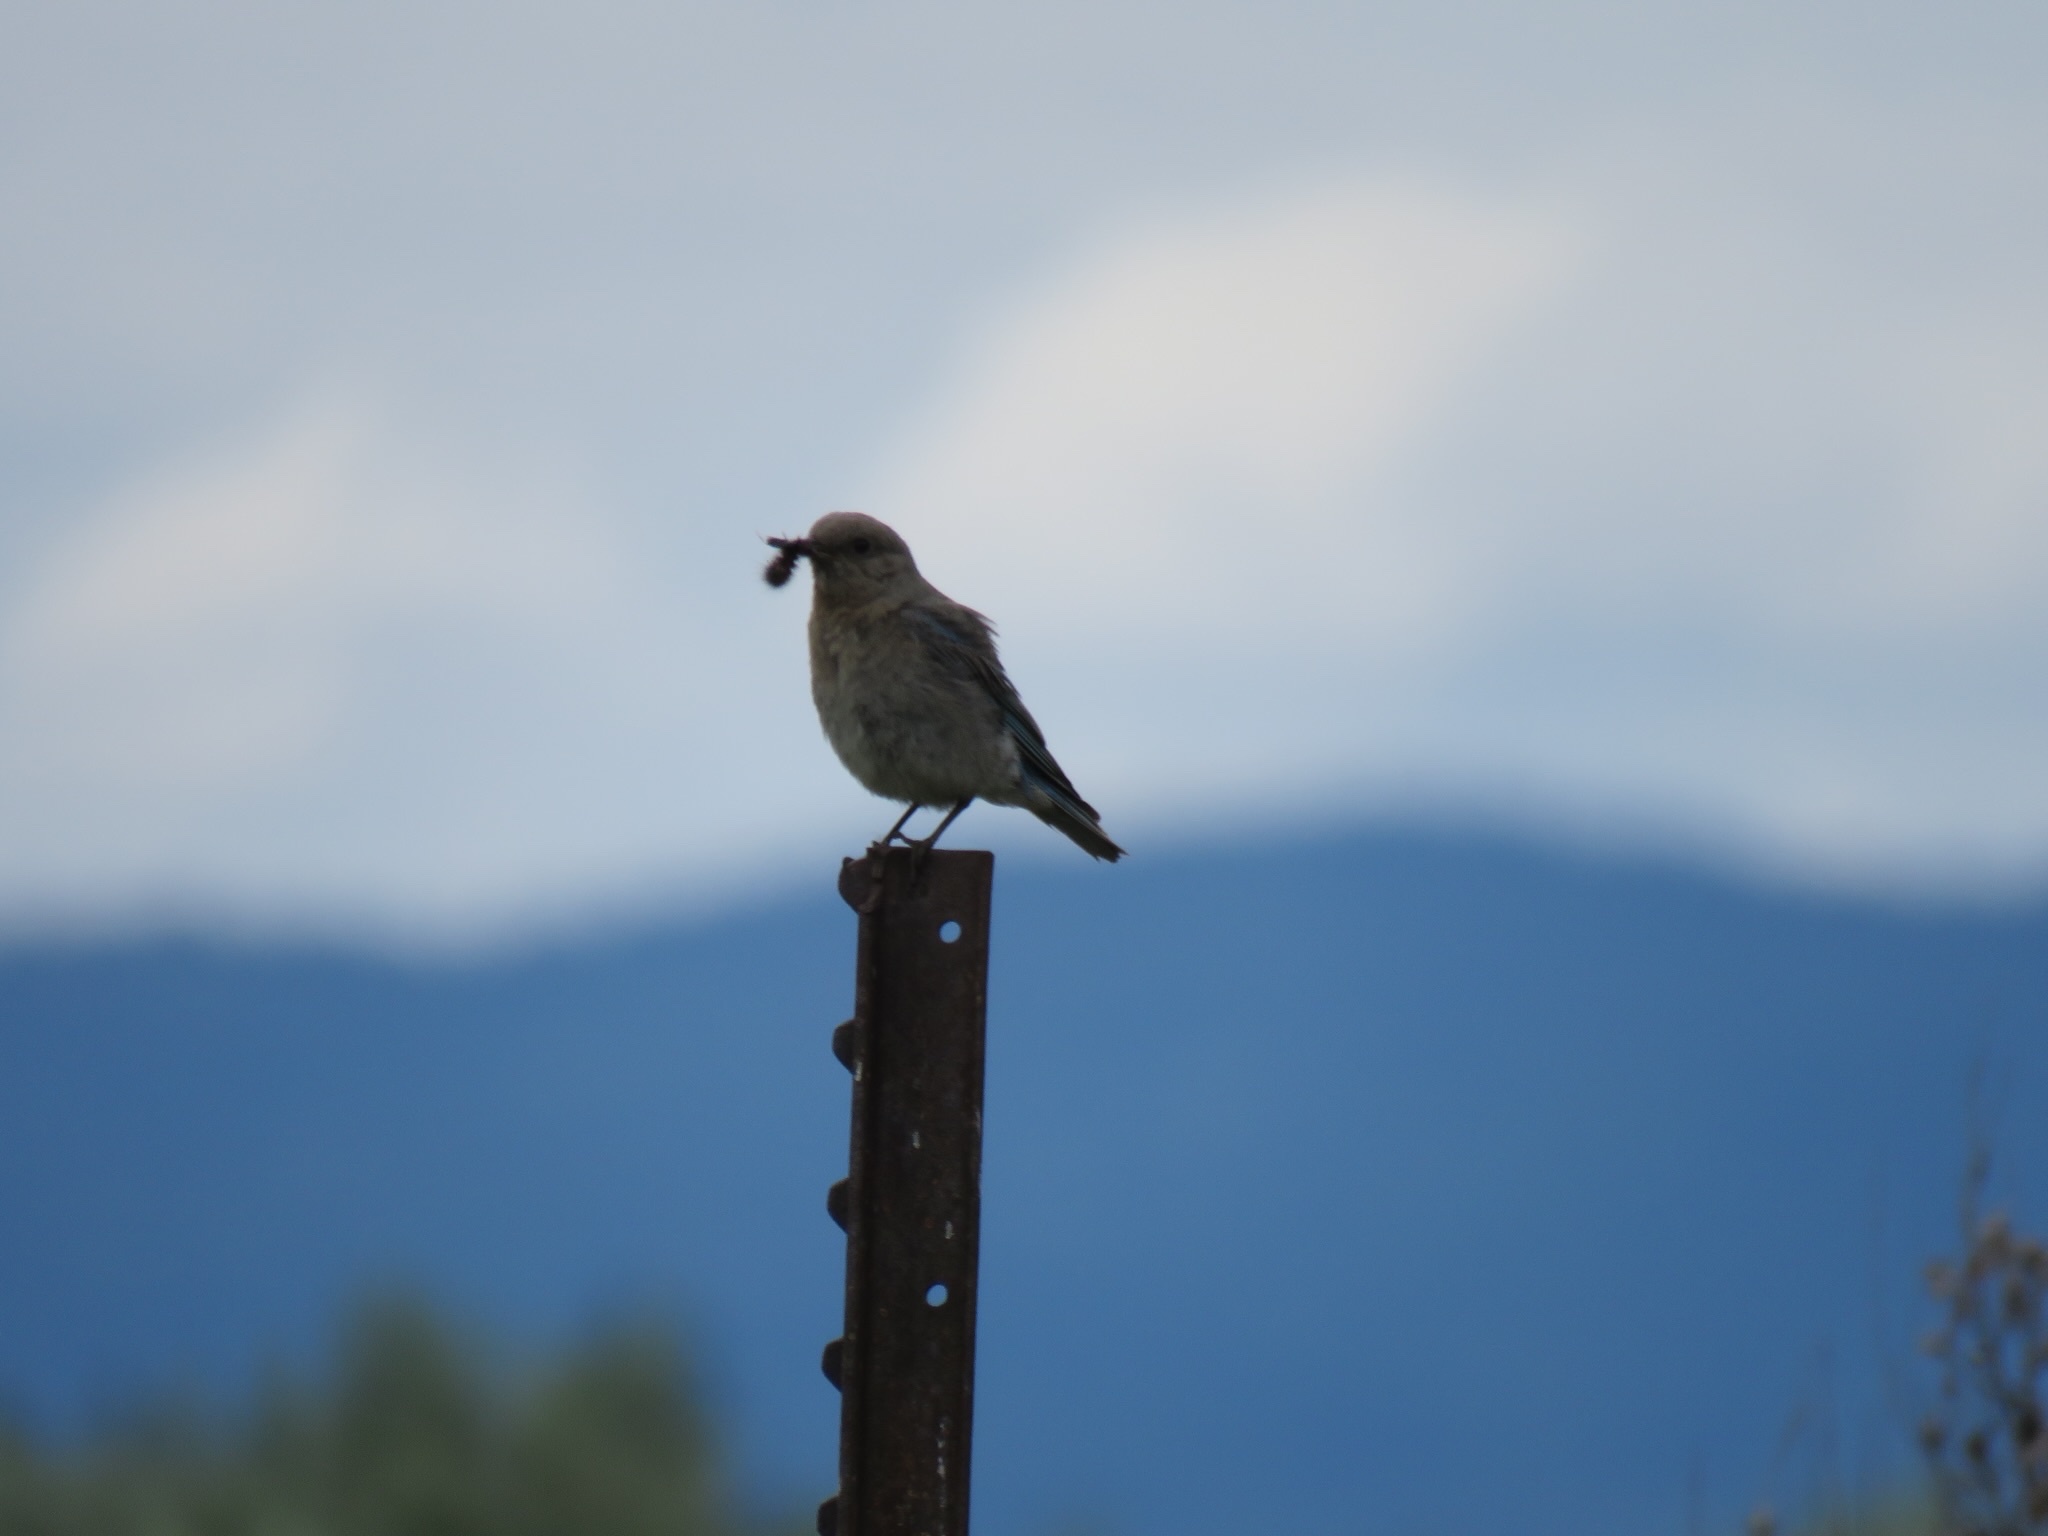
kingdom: Animalia
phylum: Chordata
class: Aves
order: Passeriformes
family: Turdidae
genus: Sialia
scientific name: Sialia currucoides
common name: Mountain bluebird
